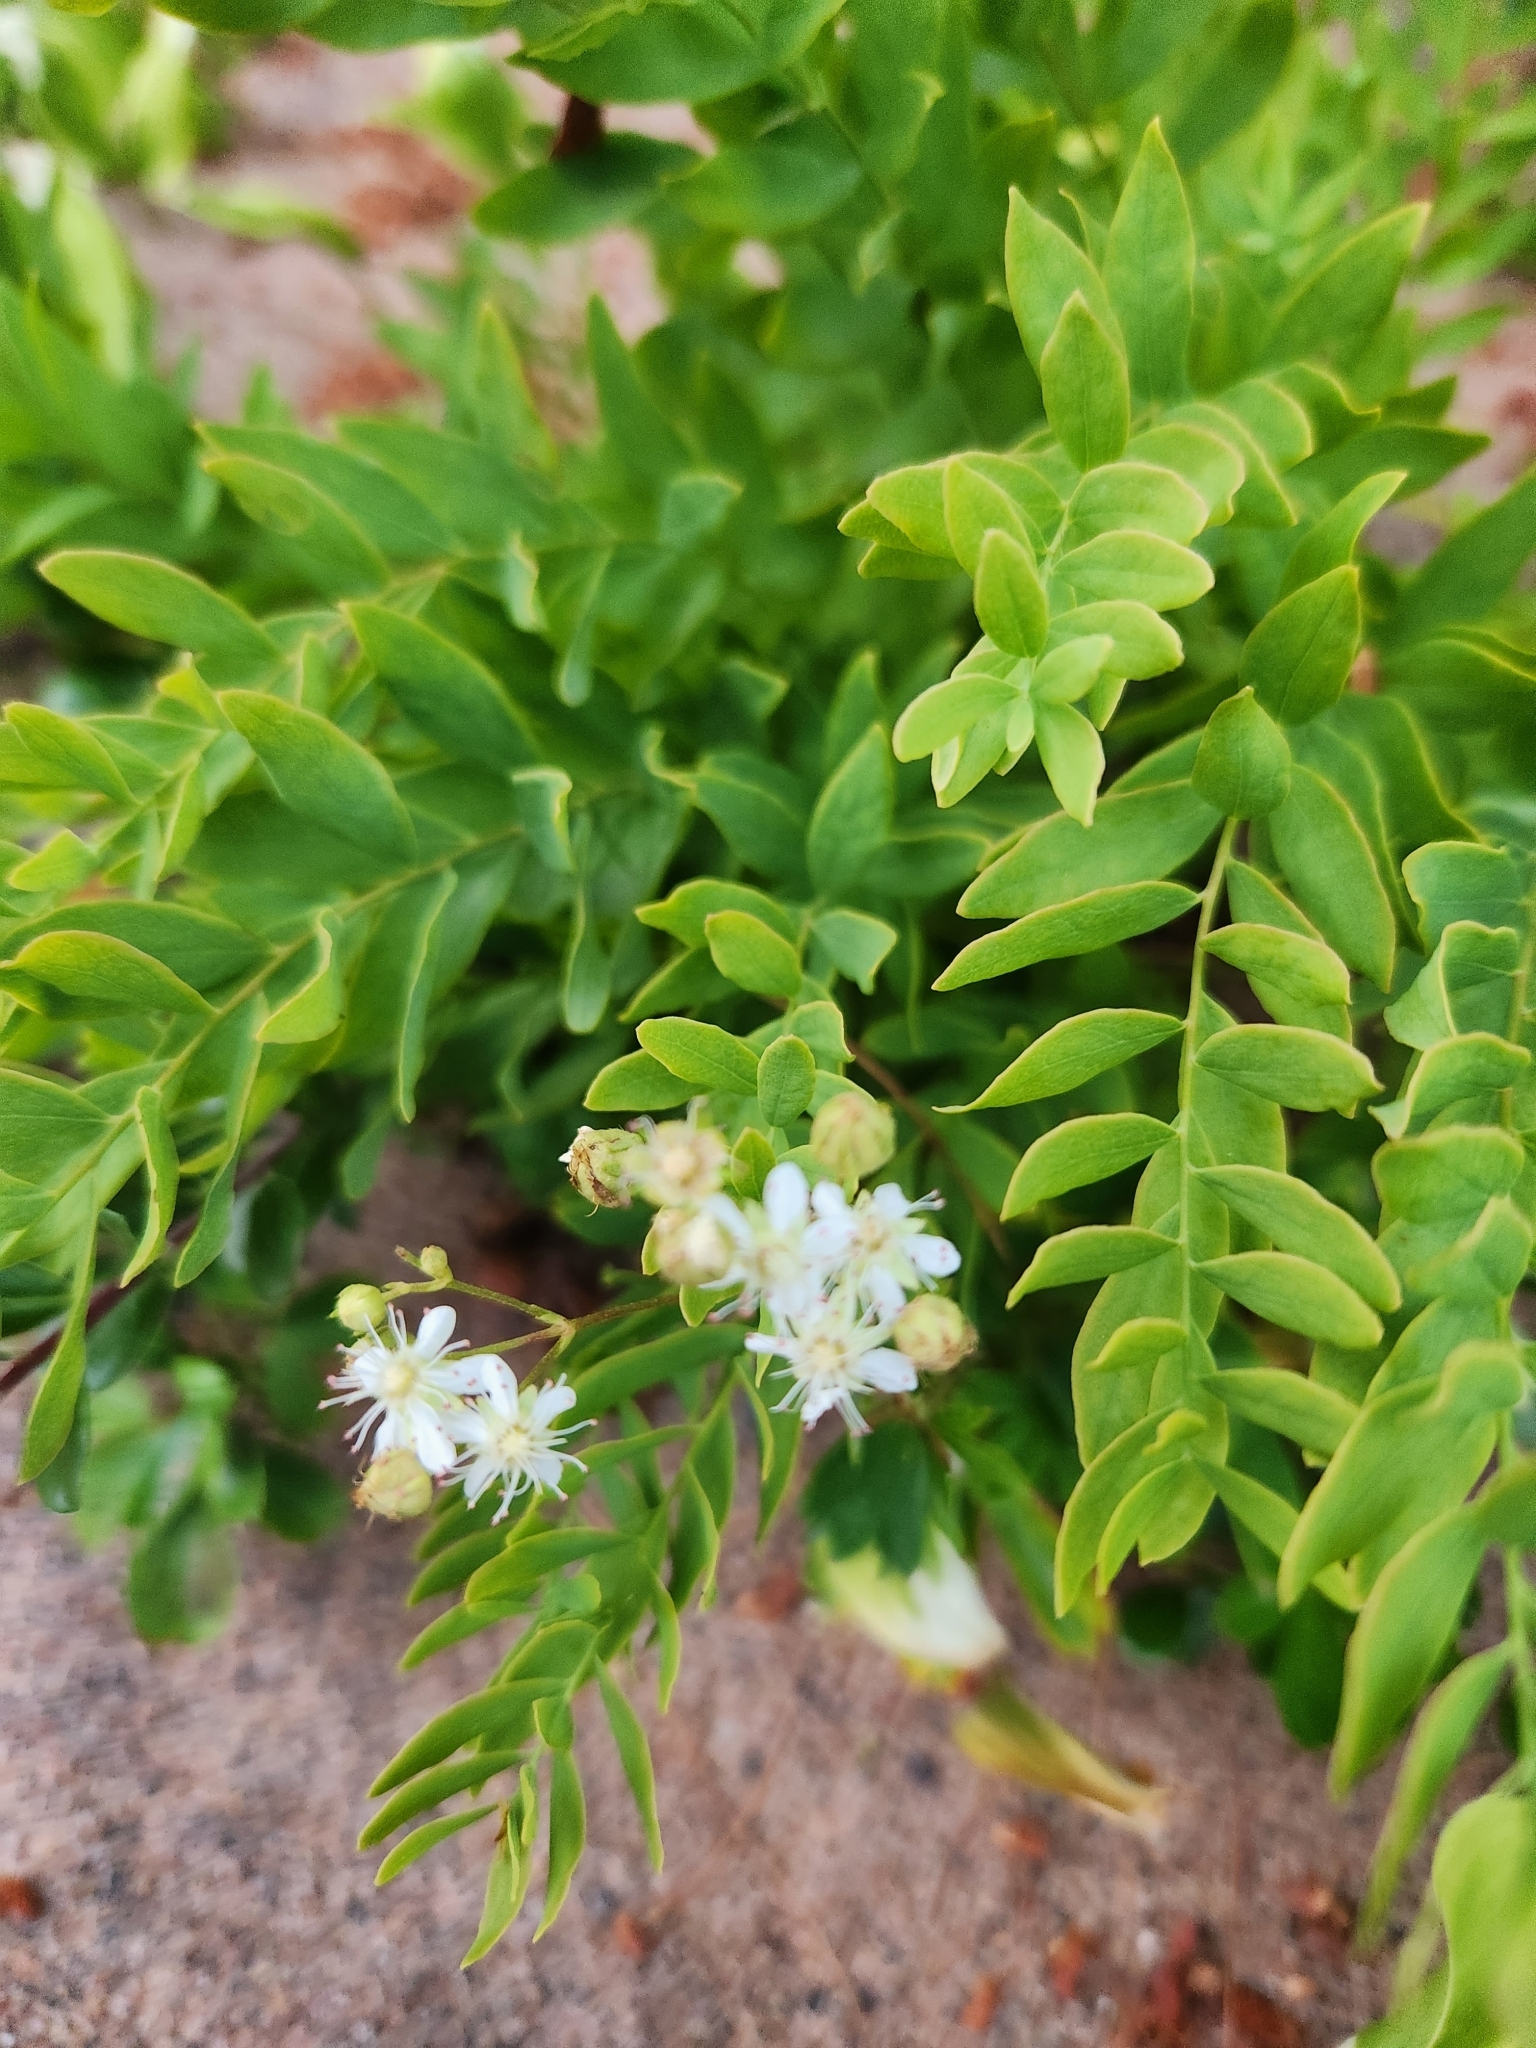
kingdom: Plantae
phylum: Tracheophyta
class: Magnoliopsida
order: Santalales
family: Comandraceae
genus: Comandra
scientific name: Comandra umbellata
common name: Bastard toadflax
